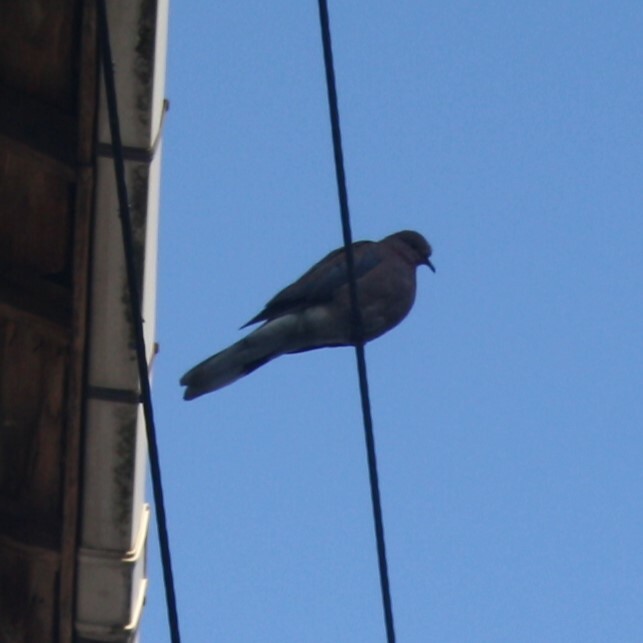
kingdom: Animalia
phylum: Chordata
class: Aves
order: Columbiformes
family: Columbidae
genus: Spilopelia
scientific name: Spilopelia senegalensis
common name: Laughing dove
